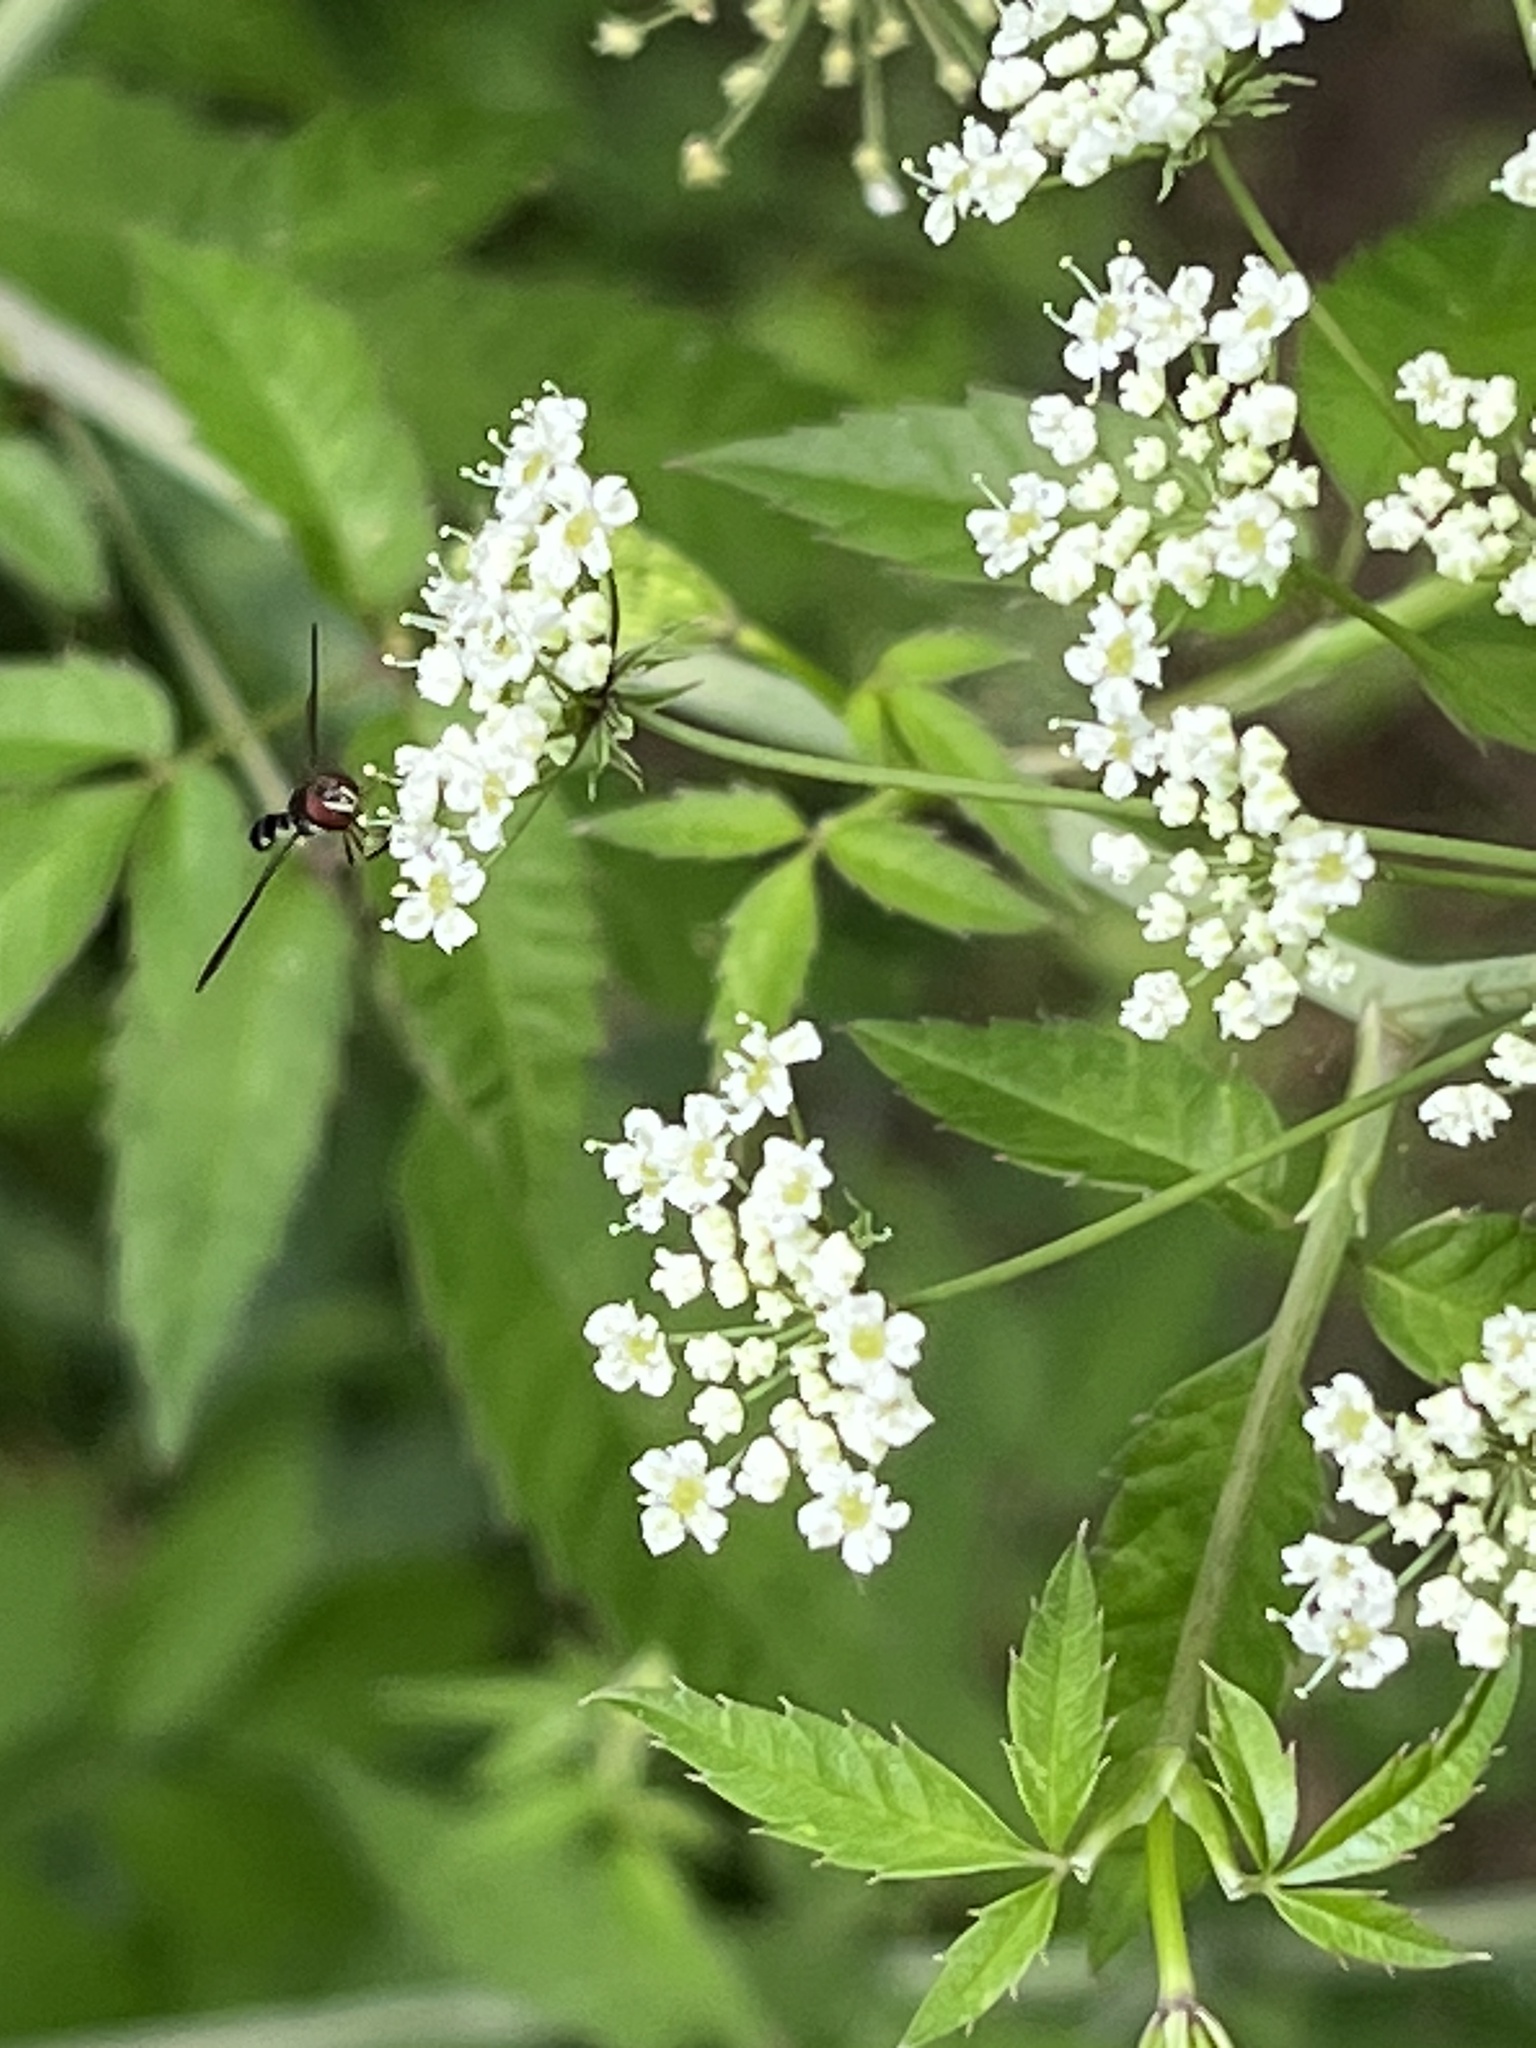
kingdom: Animalia
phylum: Arthropoda
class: Insecta
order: Diptera
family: Syrphidae
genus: Ocyptamus
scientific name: Ocyptamus costatus
